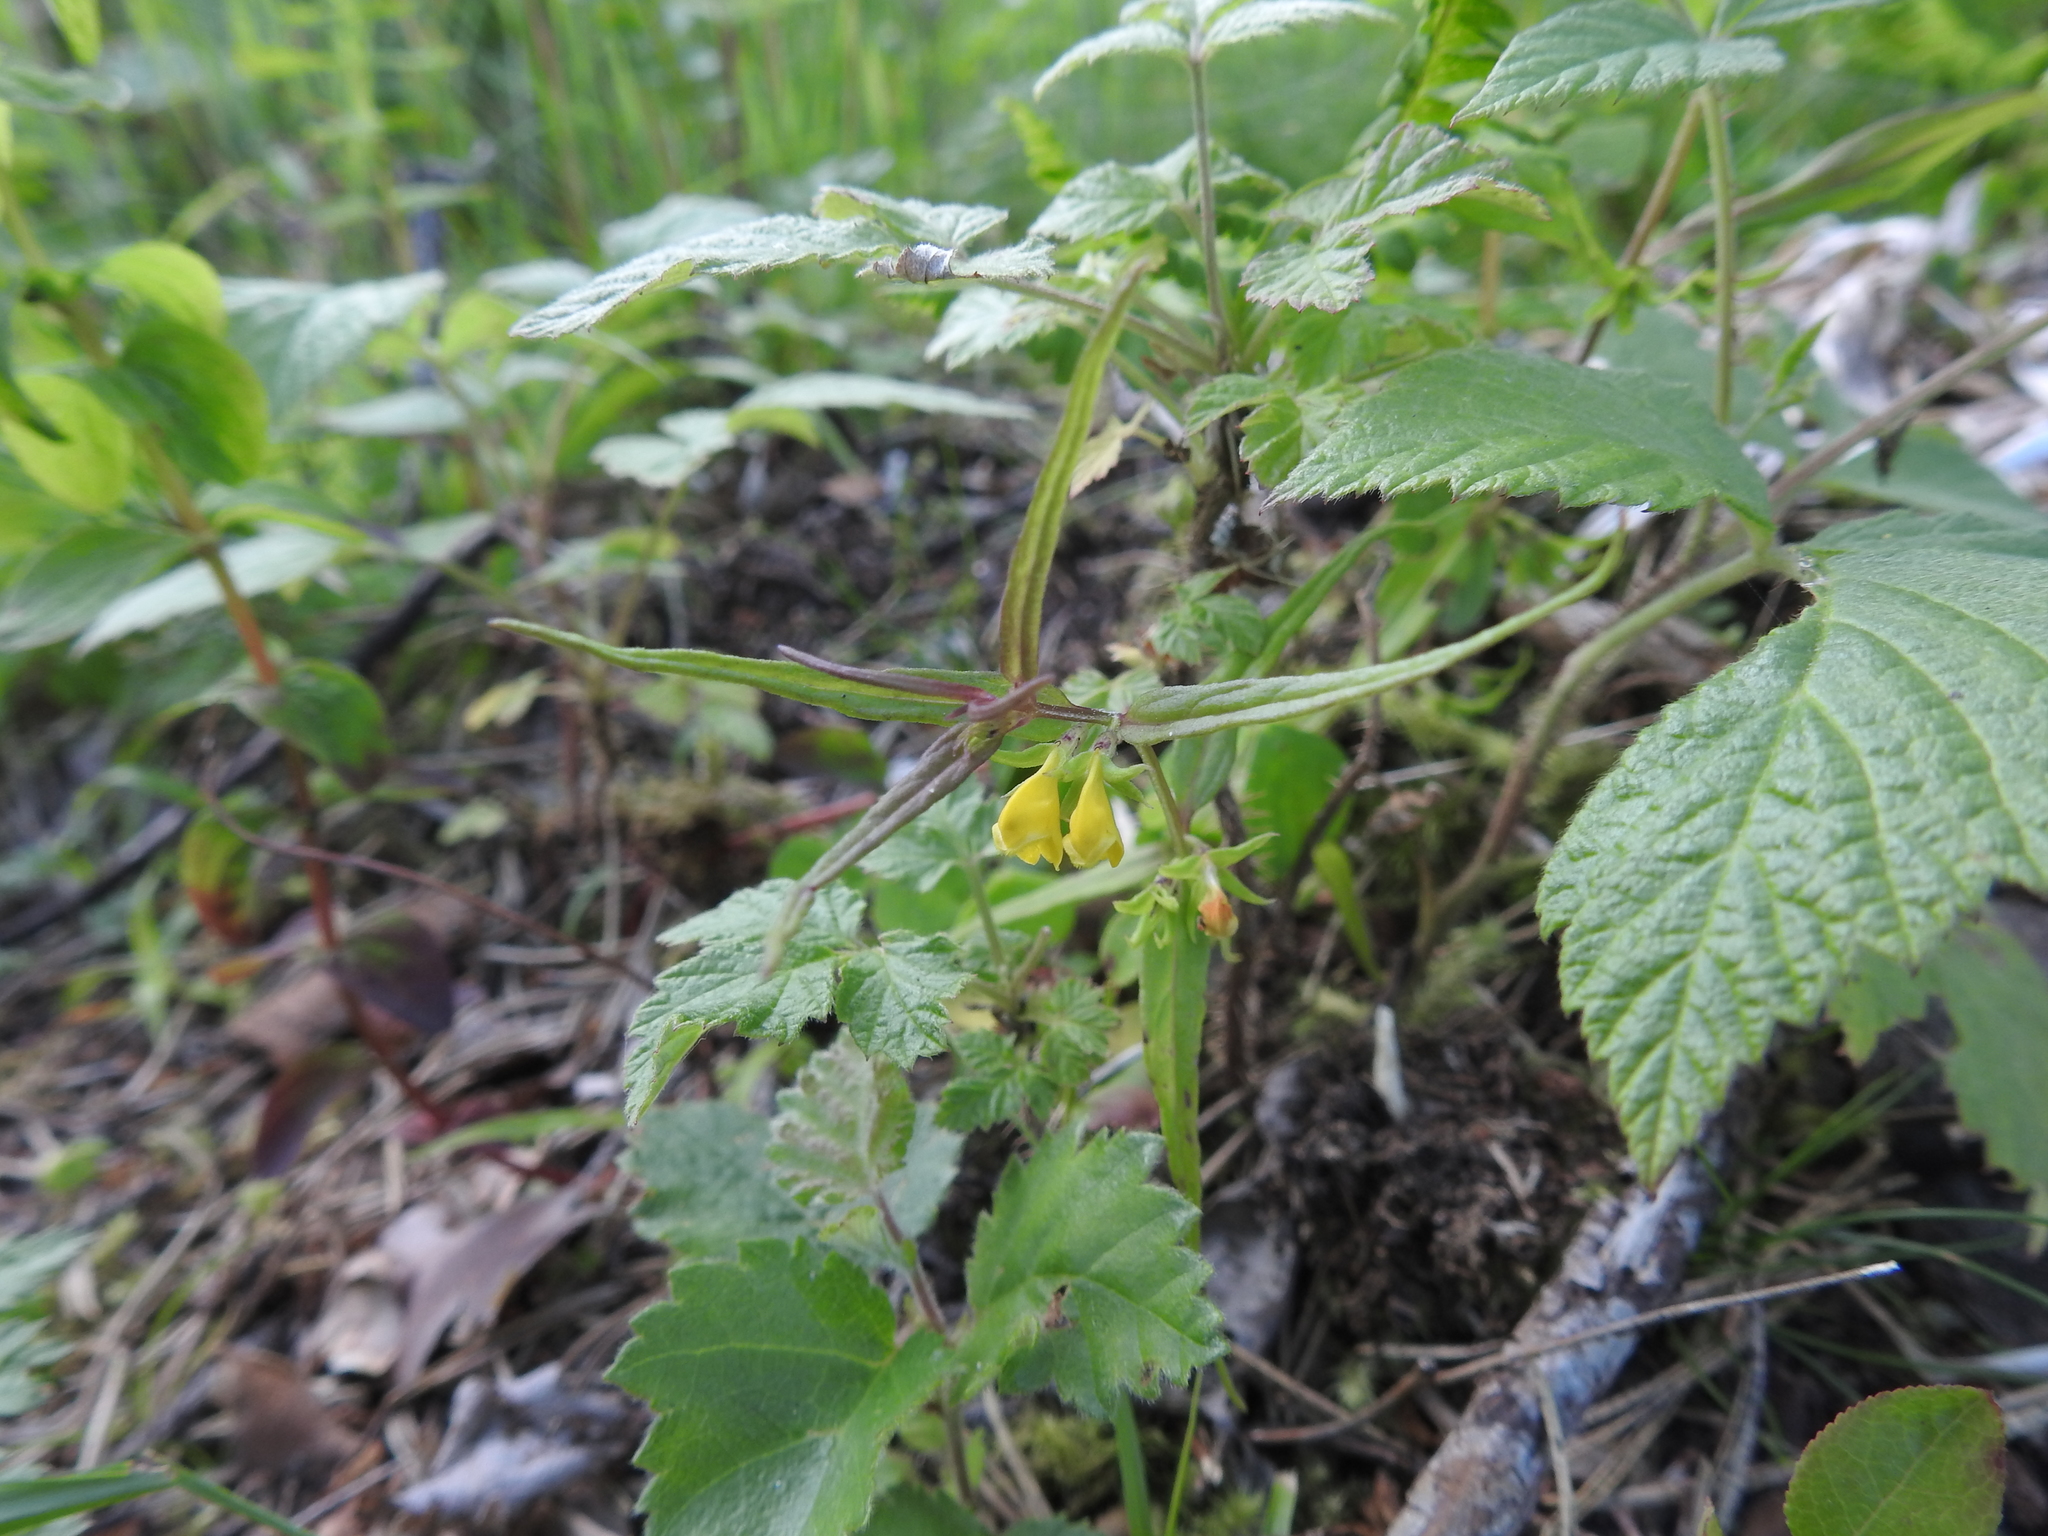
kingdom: Plantae
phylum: Tracheophyta
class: Magnoliopsida
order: Lamiales
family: Orobanchaceae
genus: Melampyrum
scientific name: Melampyrum sylvaticum
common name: Small cow-wheat
